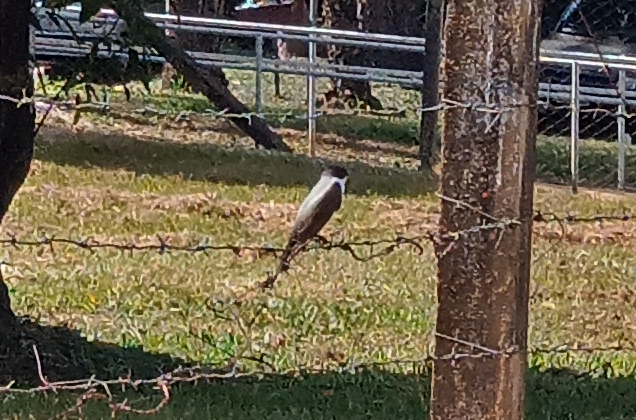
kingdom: Animalia
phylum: Chordata
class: Aves
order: Passeriformes
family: Tyrannidae
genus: Tyrannus
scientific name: Tyrannus savana
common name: Fork-tailed flycatcher
